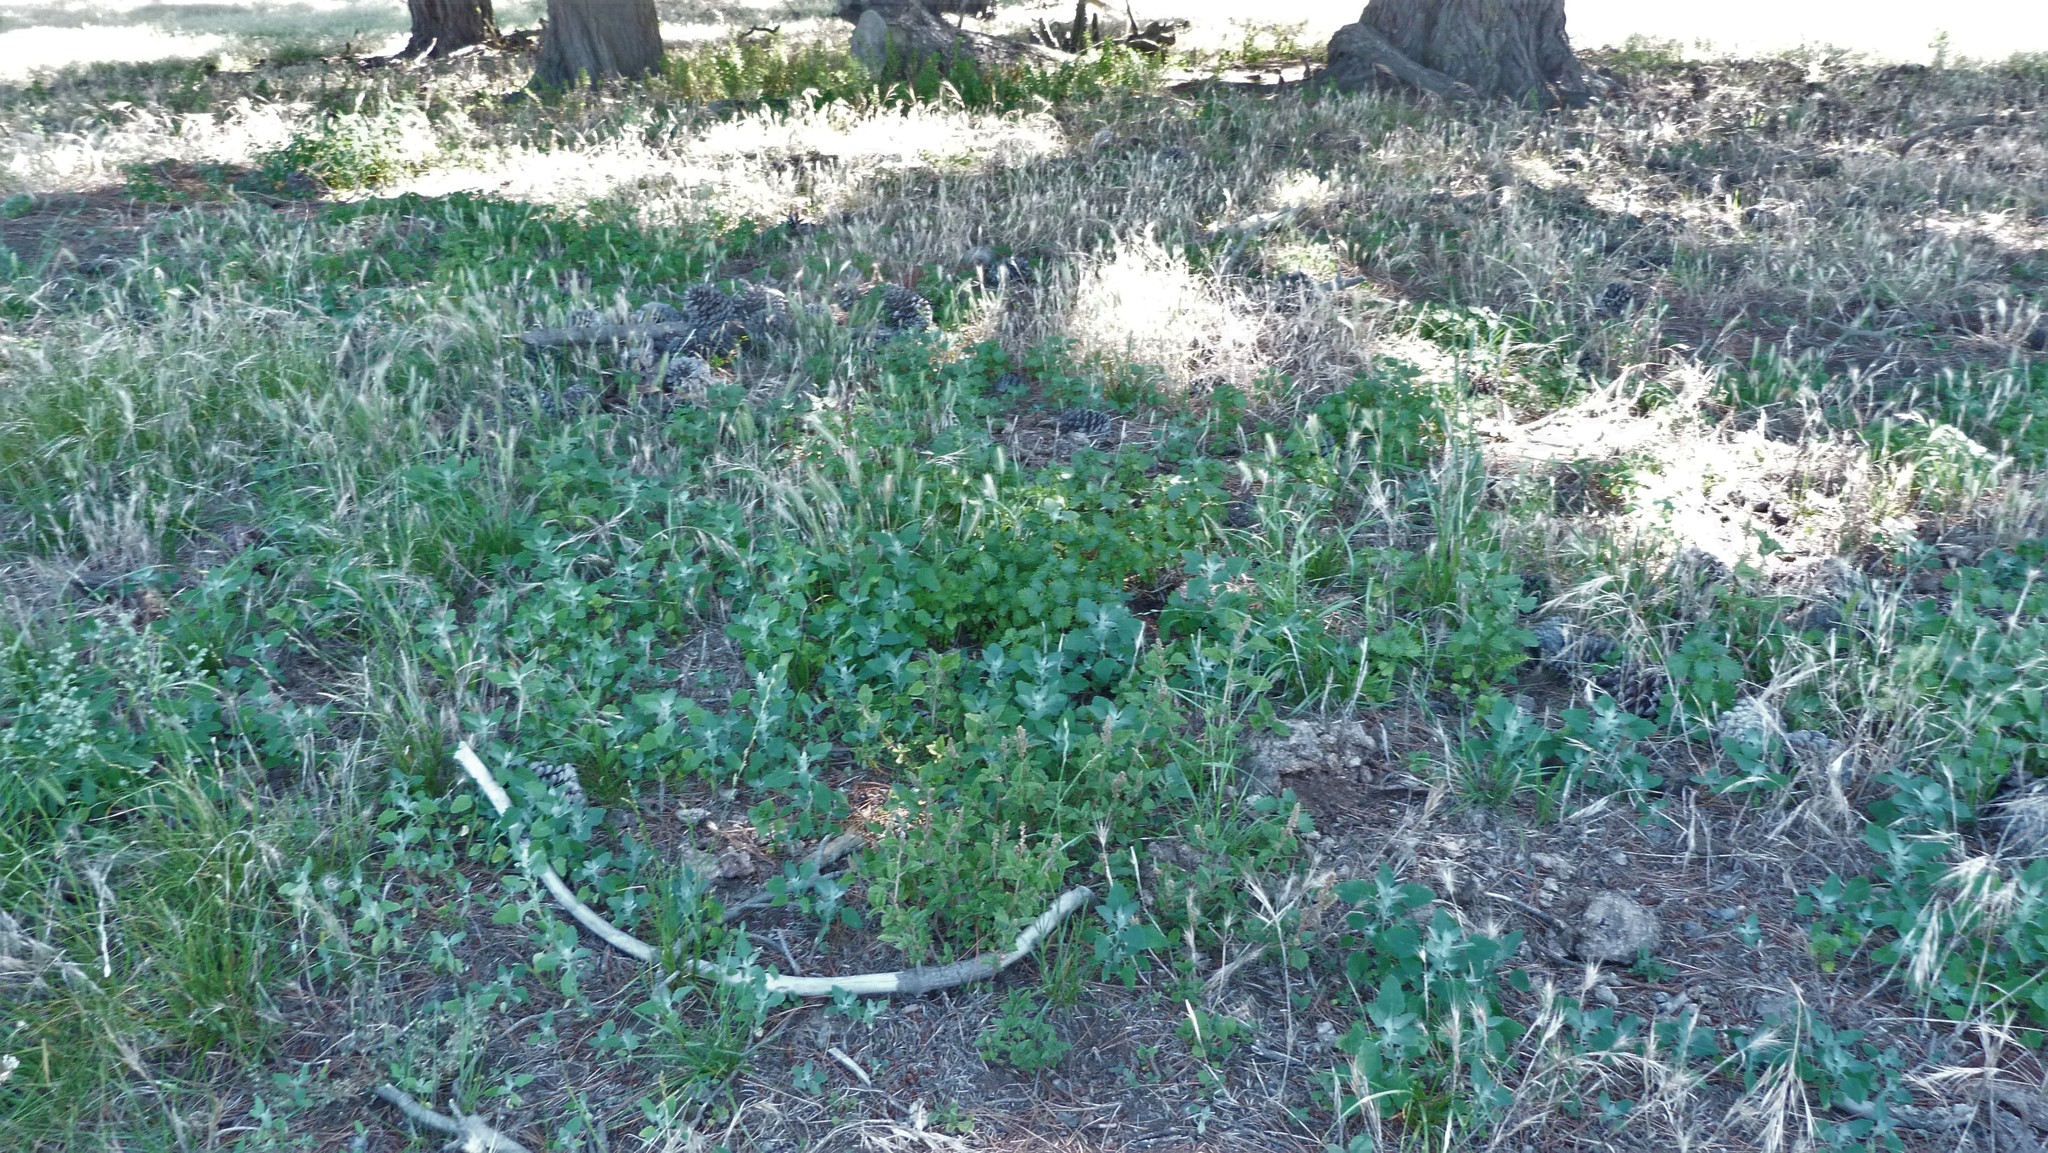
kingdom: Plantae
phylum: Tracheophyta
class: Magnoliopsida
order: Caryophyllales
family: Amaranthaceae
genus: Chenopodium
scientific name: Chenopodium album
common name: Fat-hen
